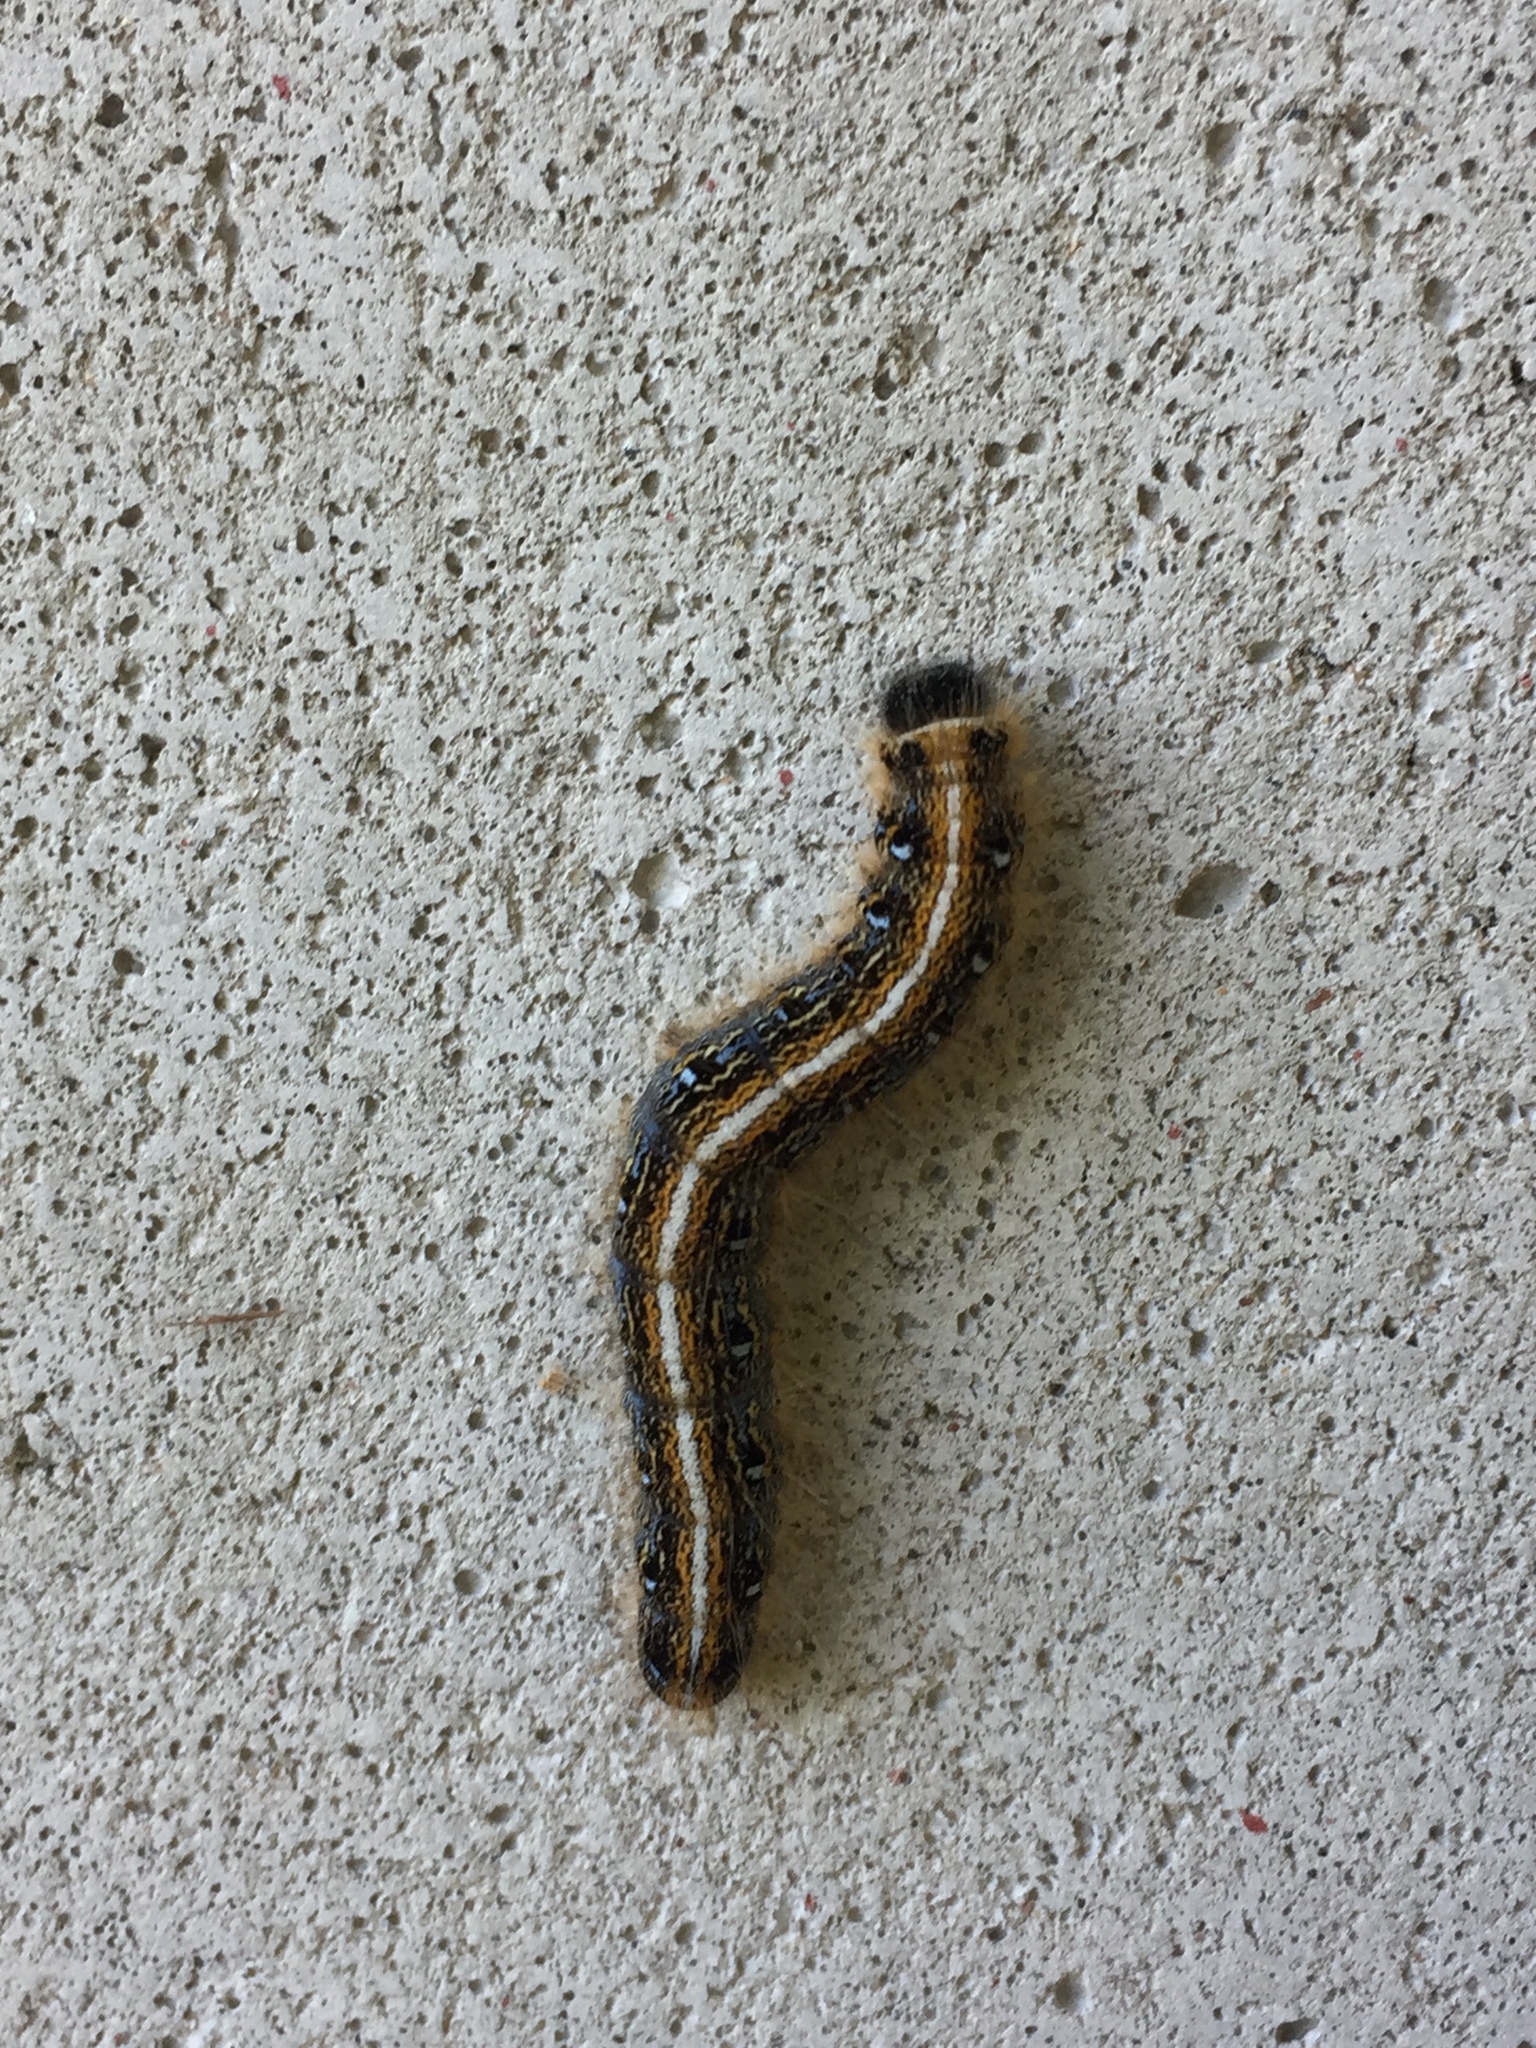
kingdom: Animalia
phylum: Arthropoda
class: Insecta
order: Lepidoptera
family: Lasiocampidae
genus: Malacosoma
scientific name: Malacosoma americana
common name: Eastern tent caterpillar moth
